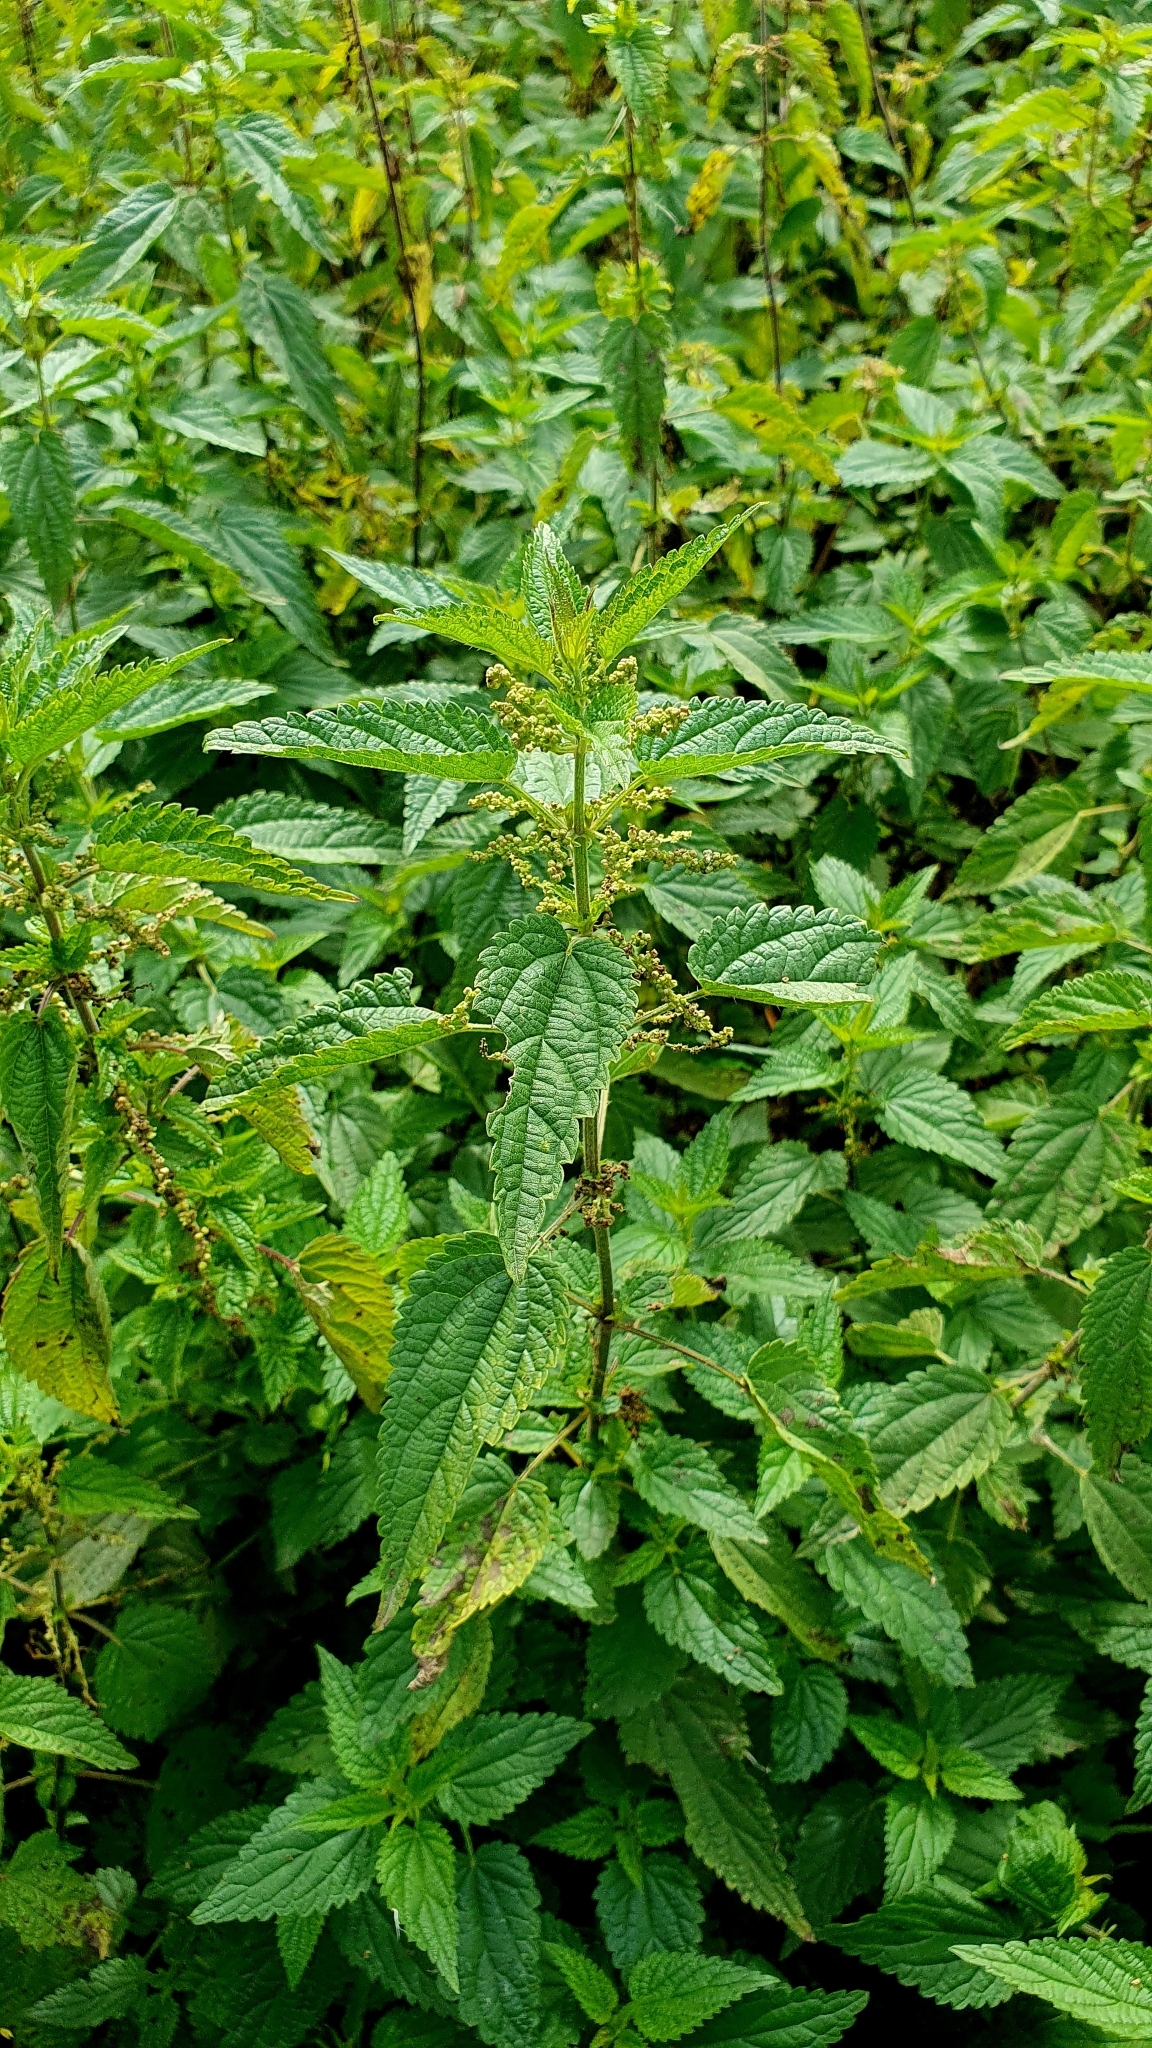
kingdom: Plantae
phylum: Tracheophyta
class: Magnoliopsida
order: Rosales
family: Urticaceae
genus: Urtica
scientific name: Urtica dioica
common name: Common nettle
